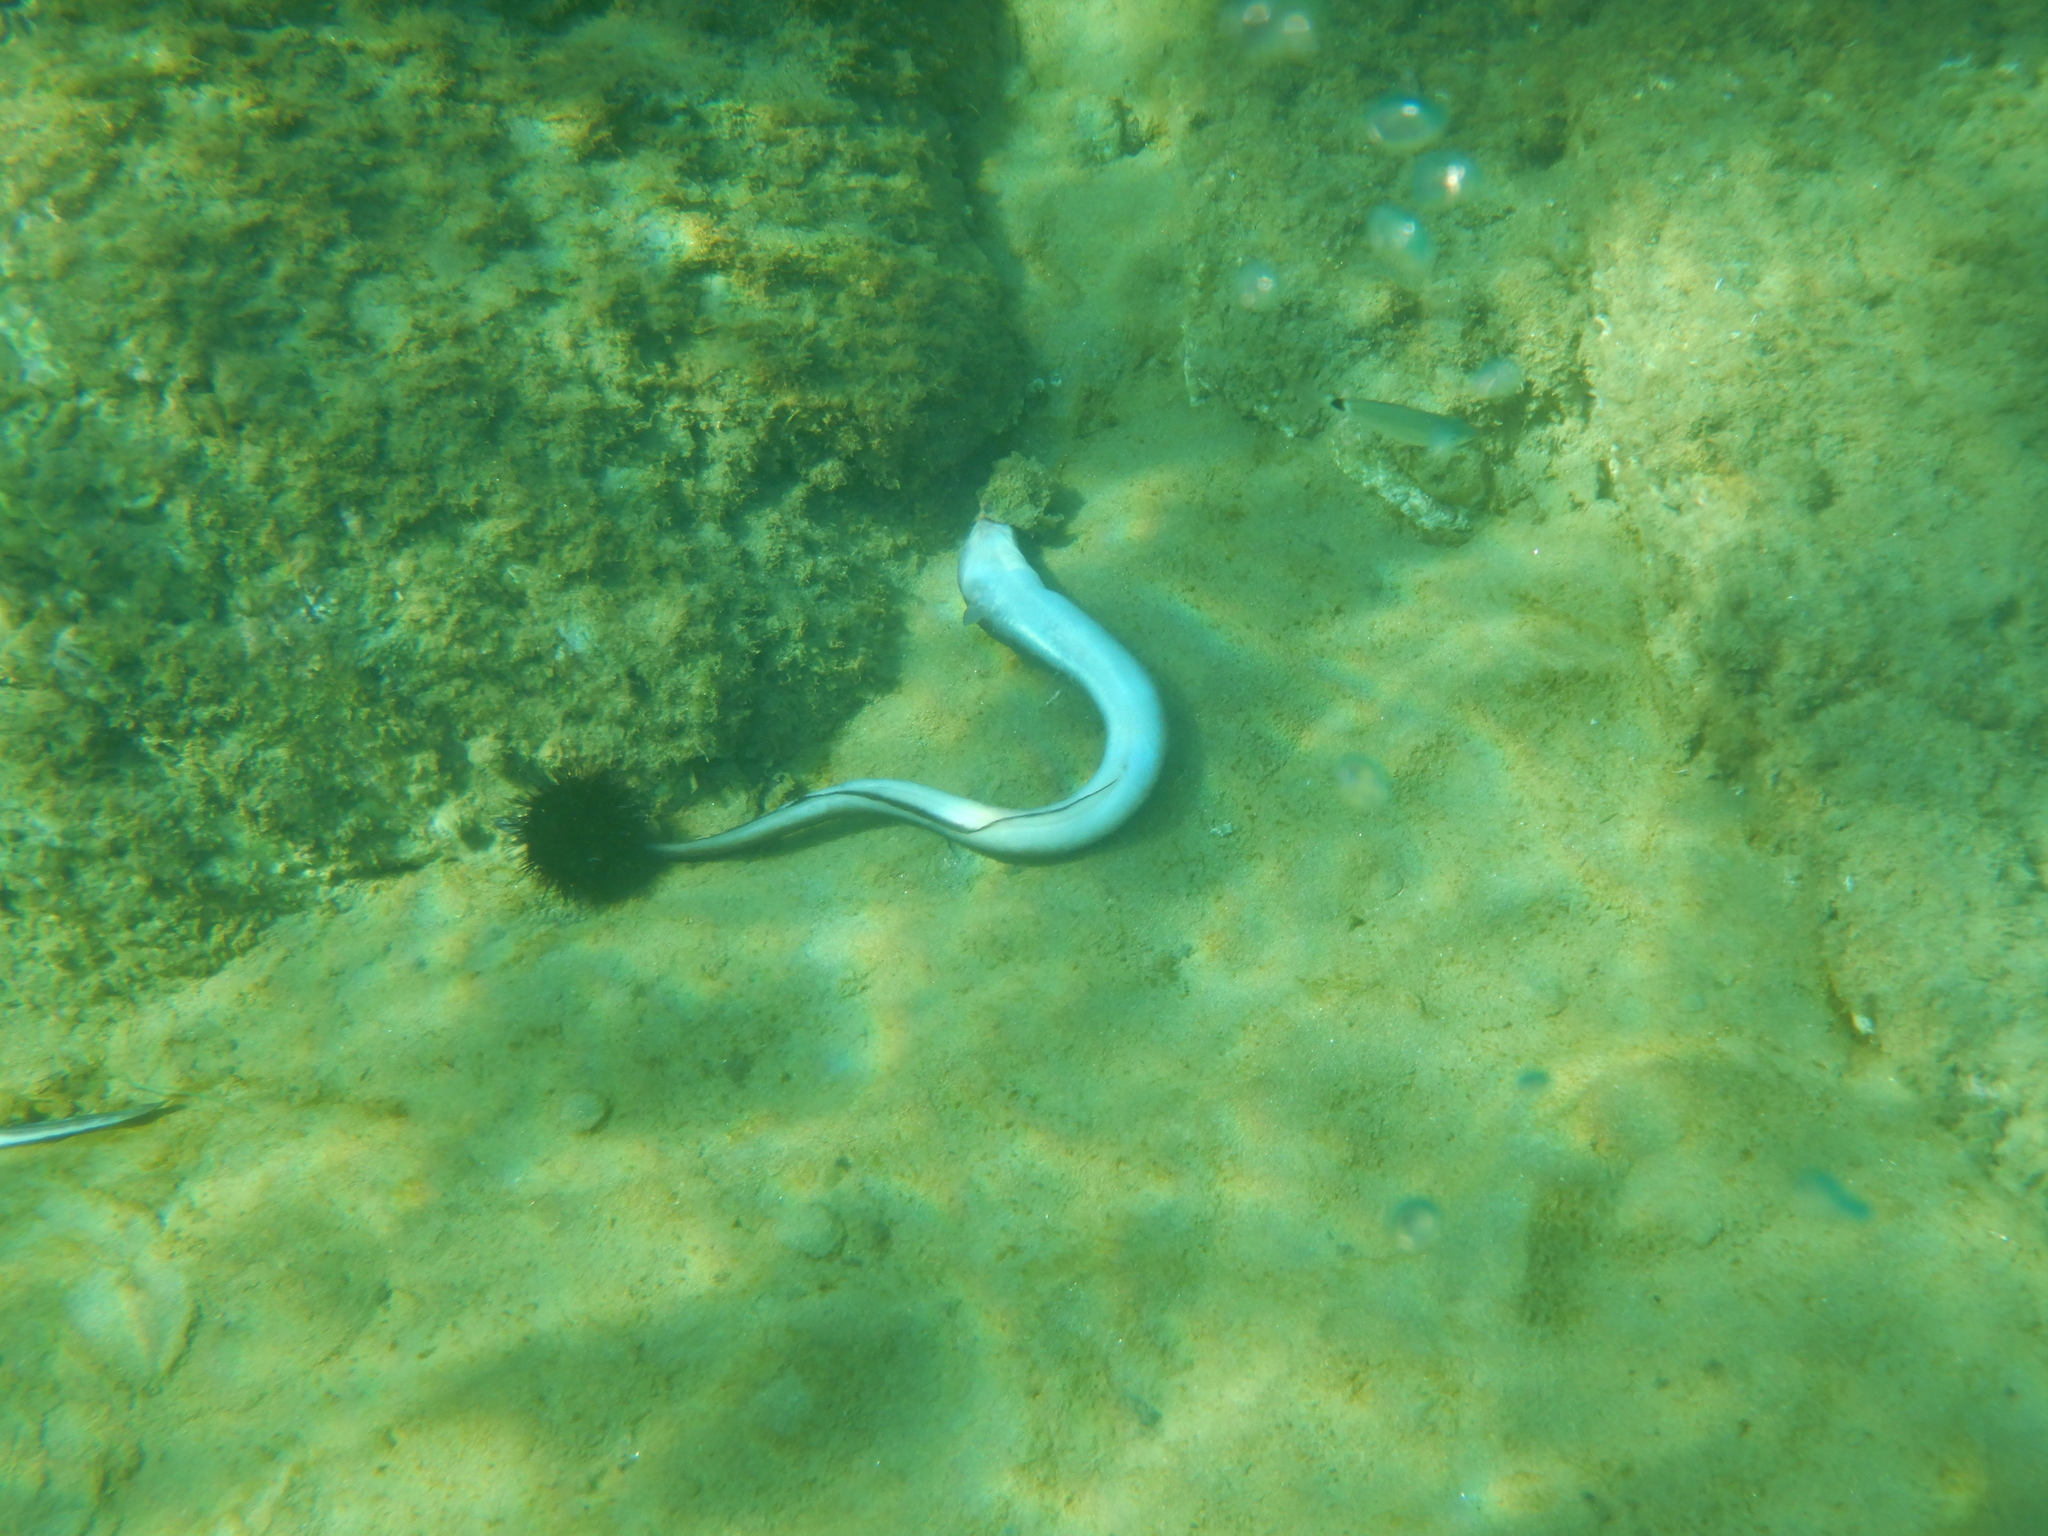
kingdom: Animalia
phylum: Chordata
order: Anguilliformes
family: Congridae
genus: Conger
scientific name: Conger conger
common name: Conger eel
